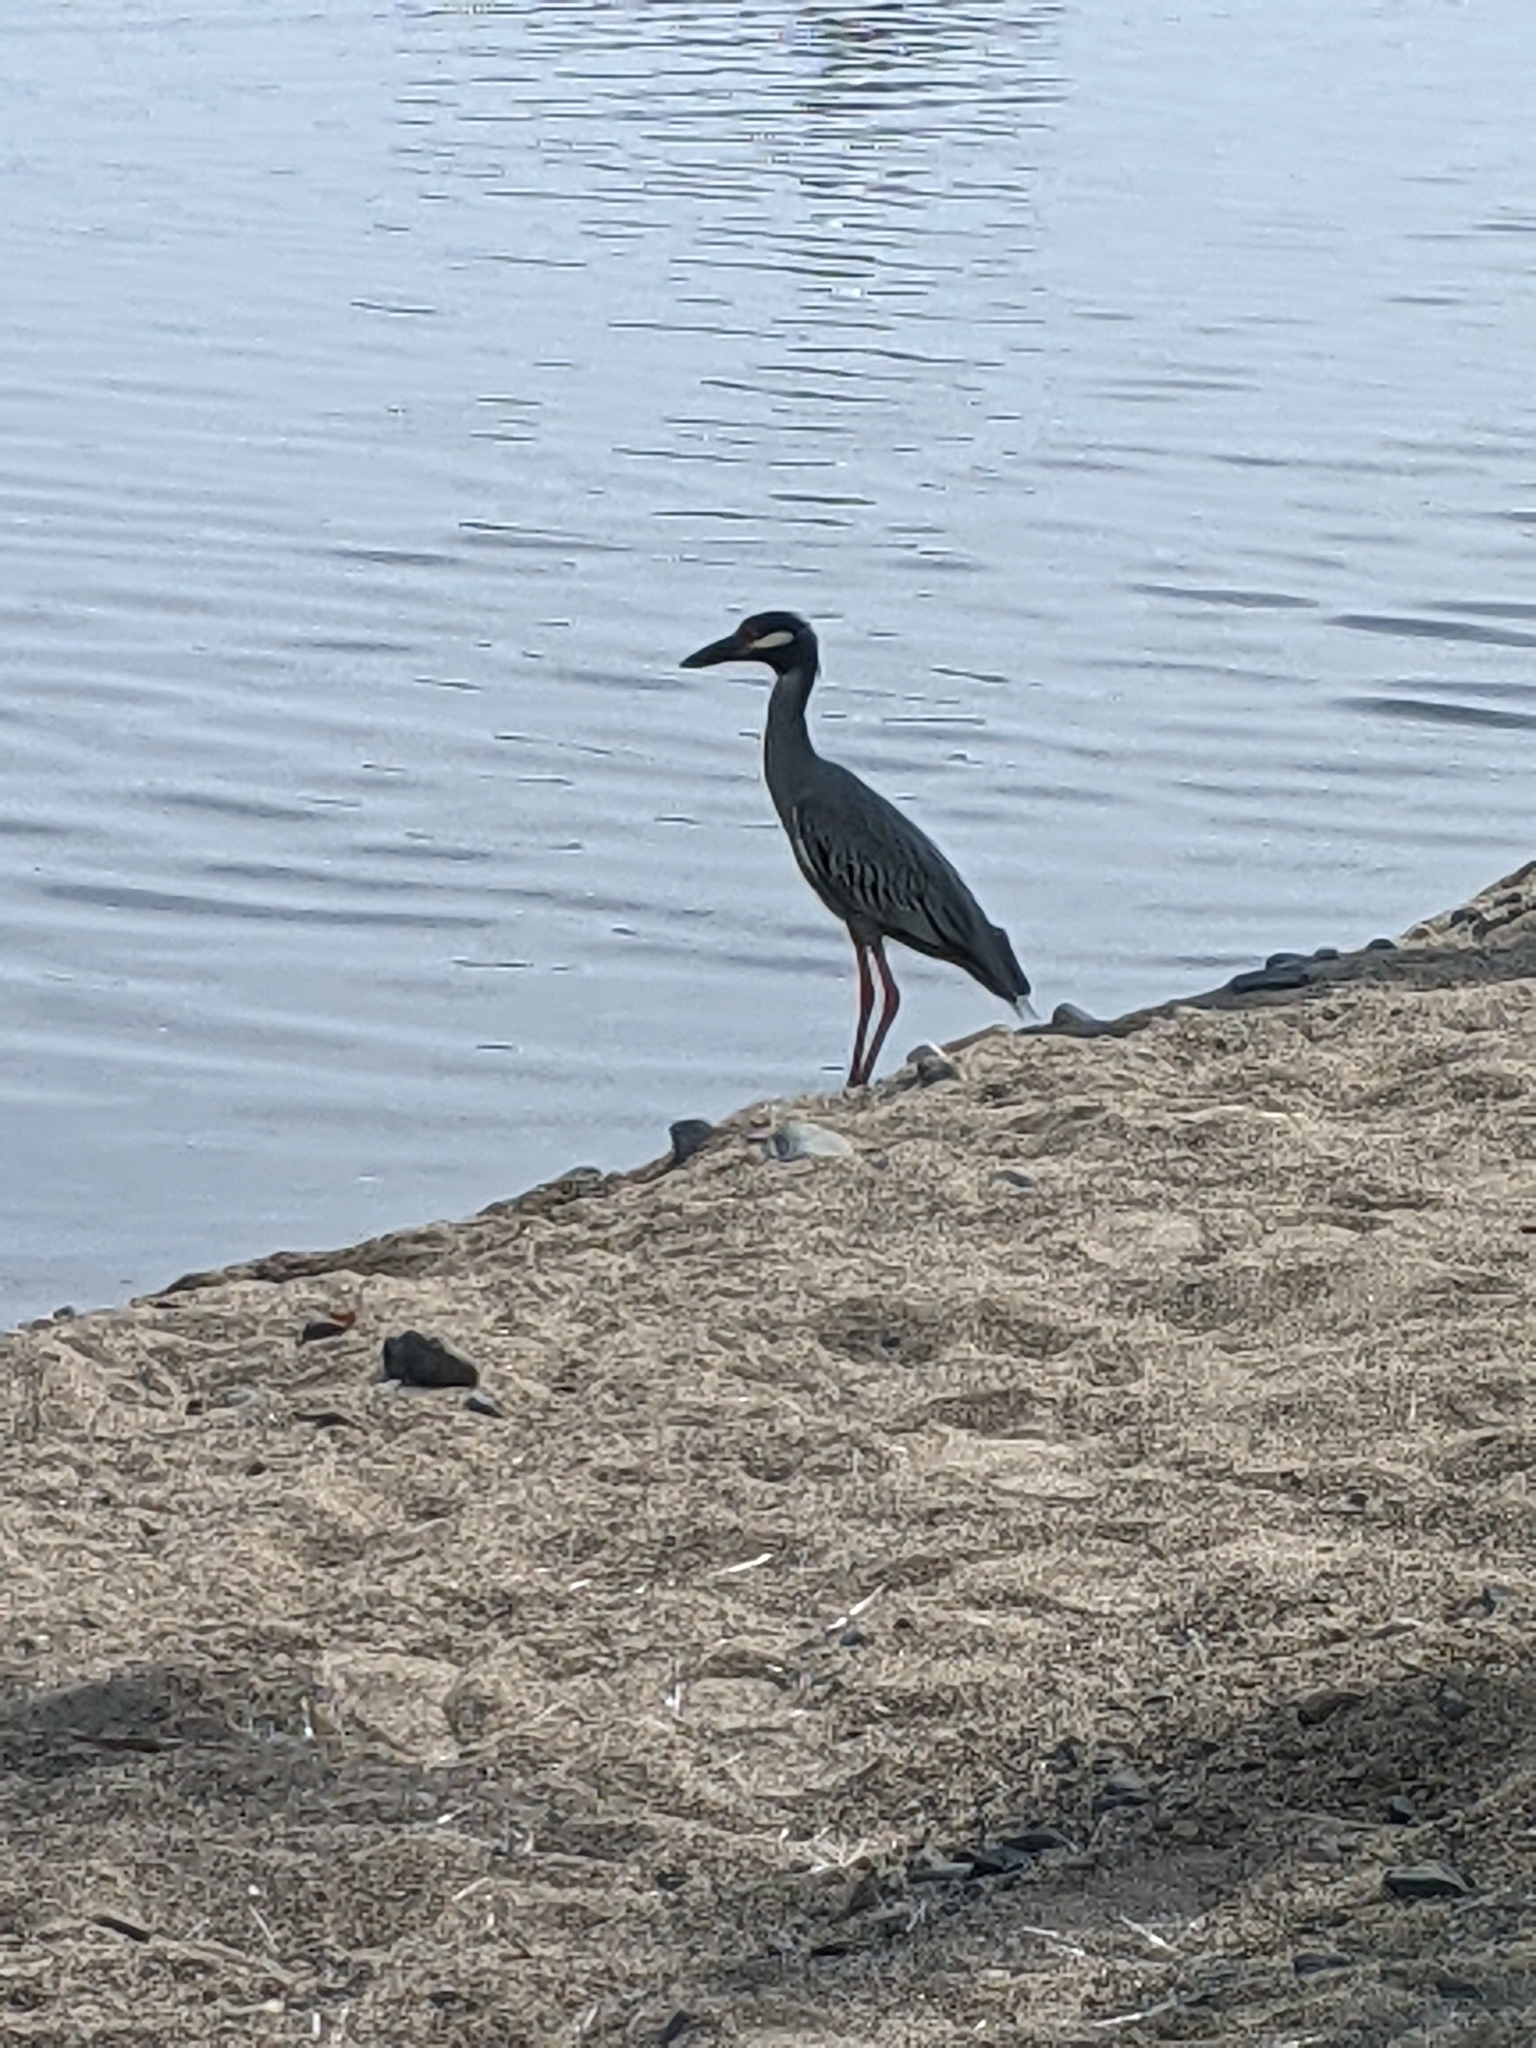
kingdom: Animalia
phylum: Chordata
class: Aves
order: Pelecaniformes
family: Ardeidae
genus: Nyctanassa
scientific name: Nyctanassa violacea
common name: Yellow-crowned night heron
